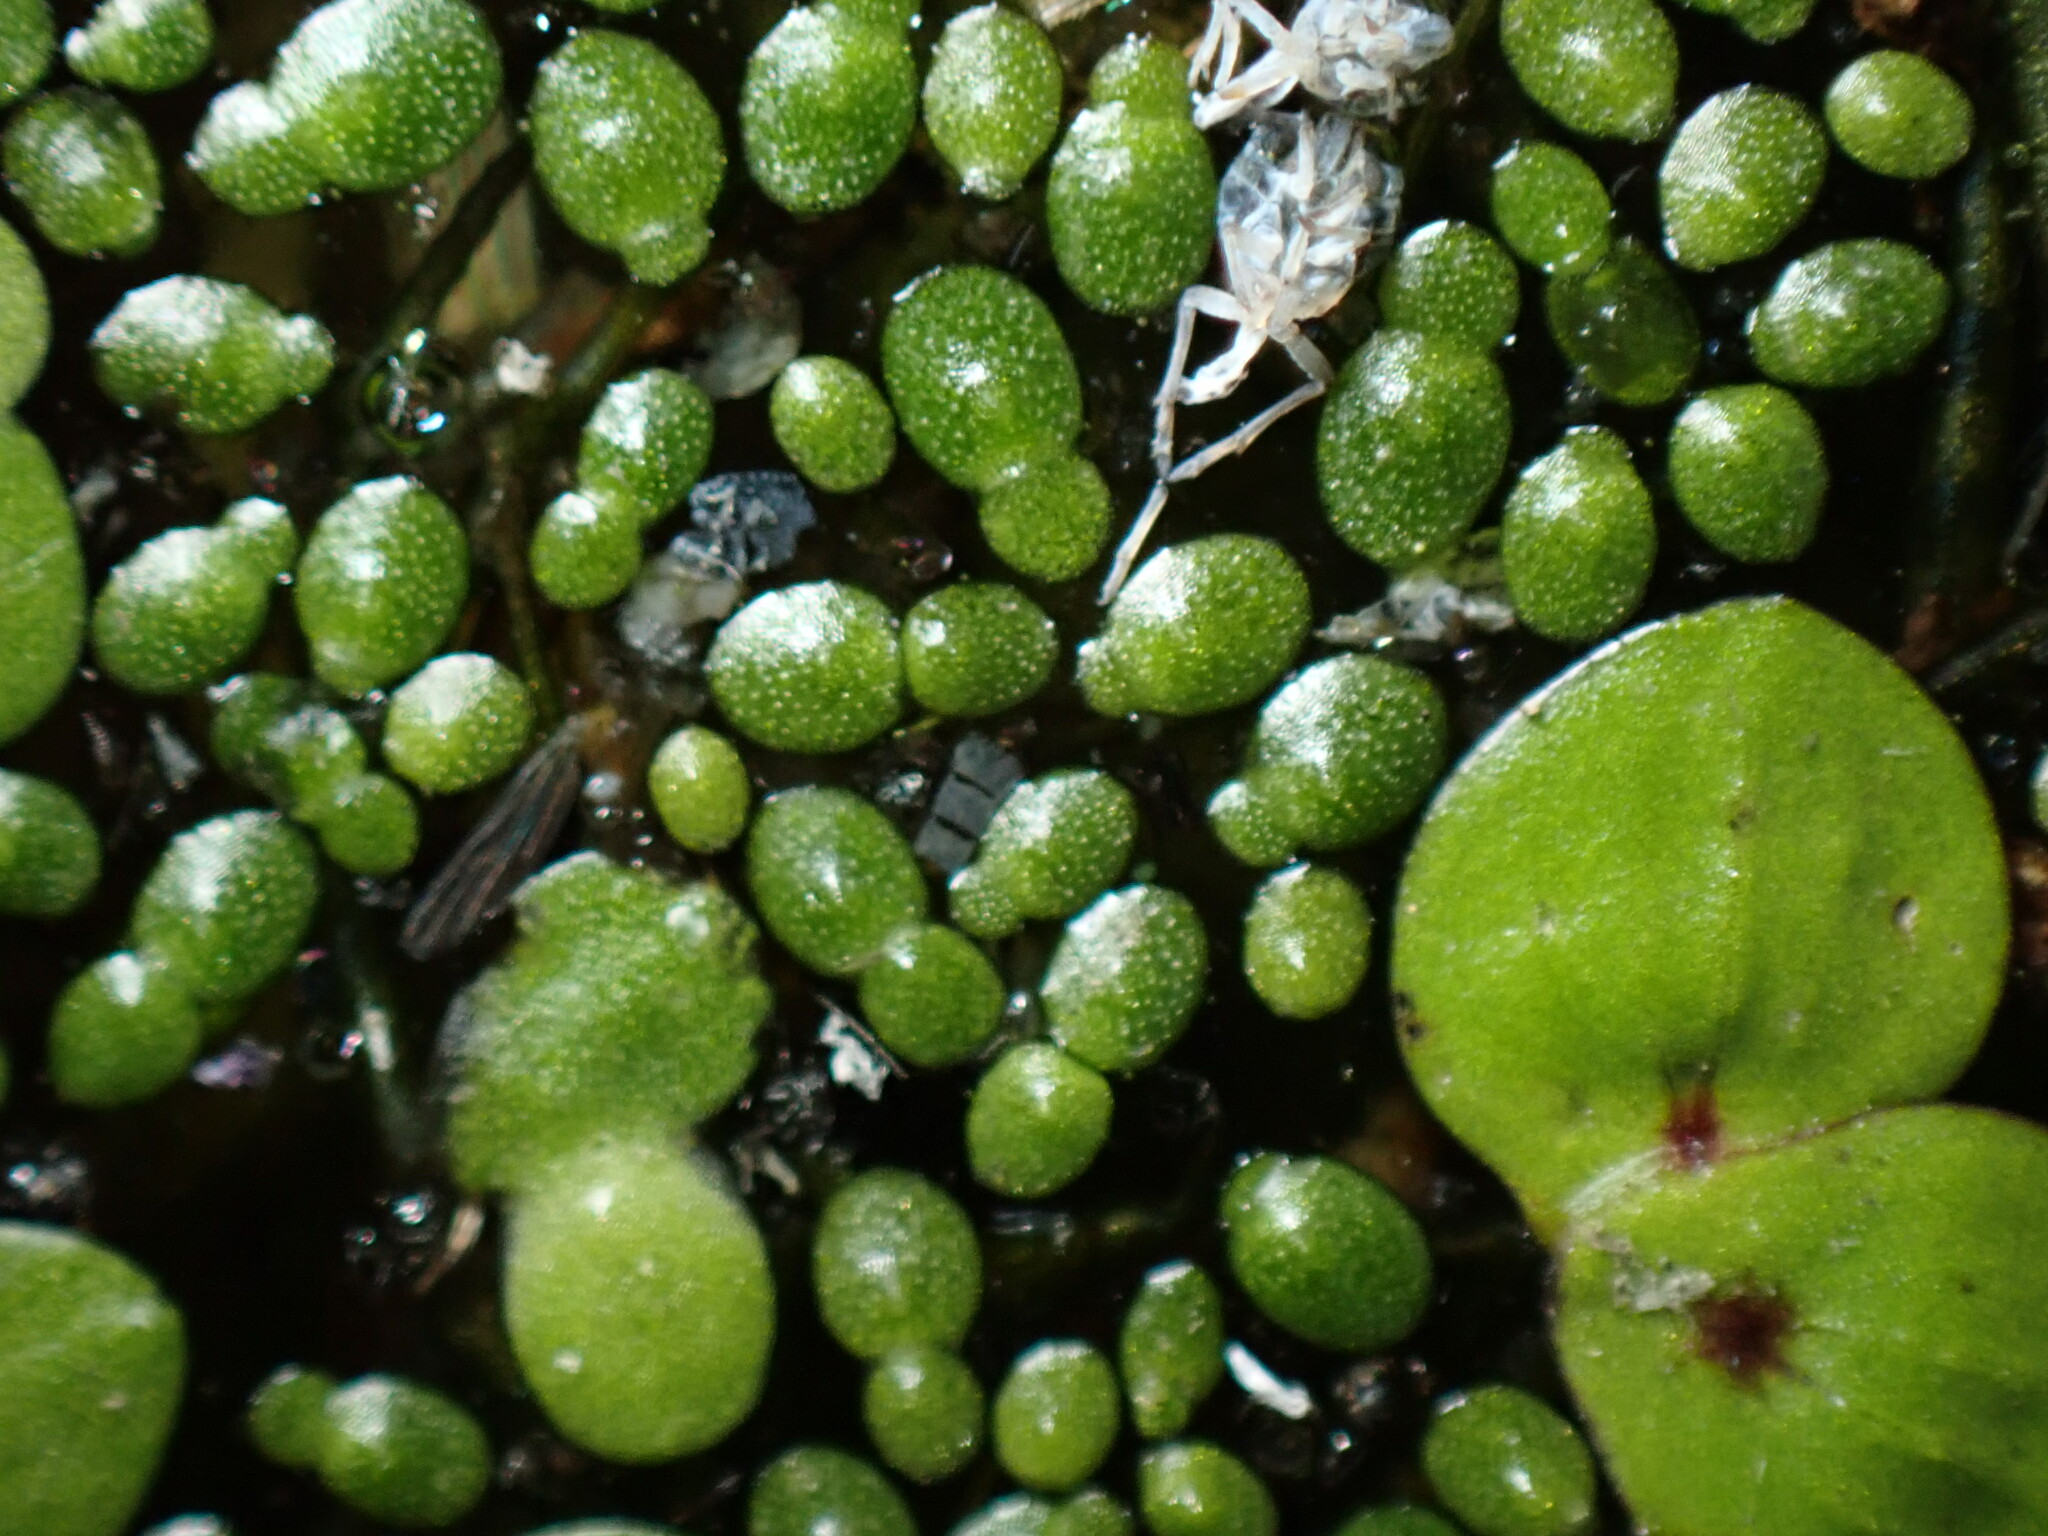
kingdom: Plantae
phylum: Tracheophyta
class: Liliopsida
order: Alismatales
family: Araceae
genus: Wolffia
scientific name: Wolffia brasiliensis
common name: Brazilian watermeal
